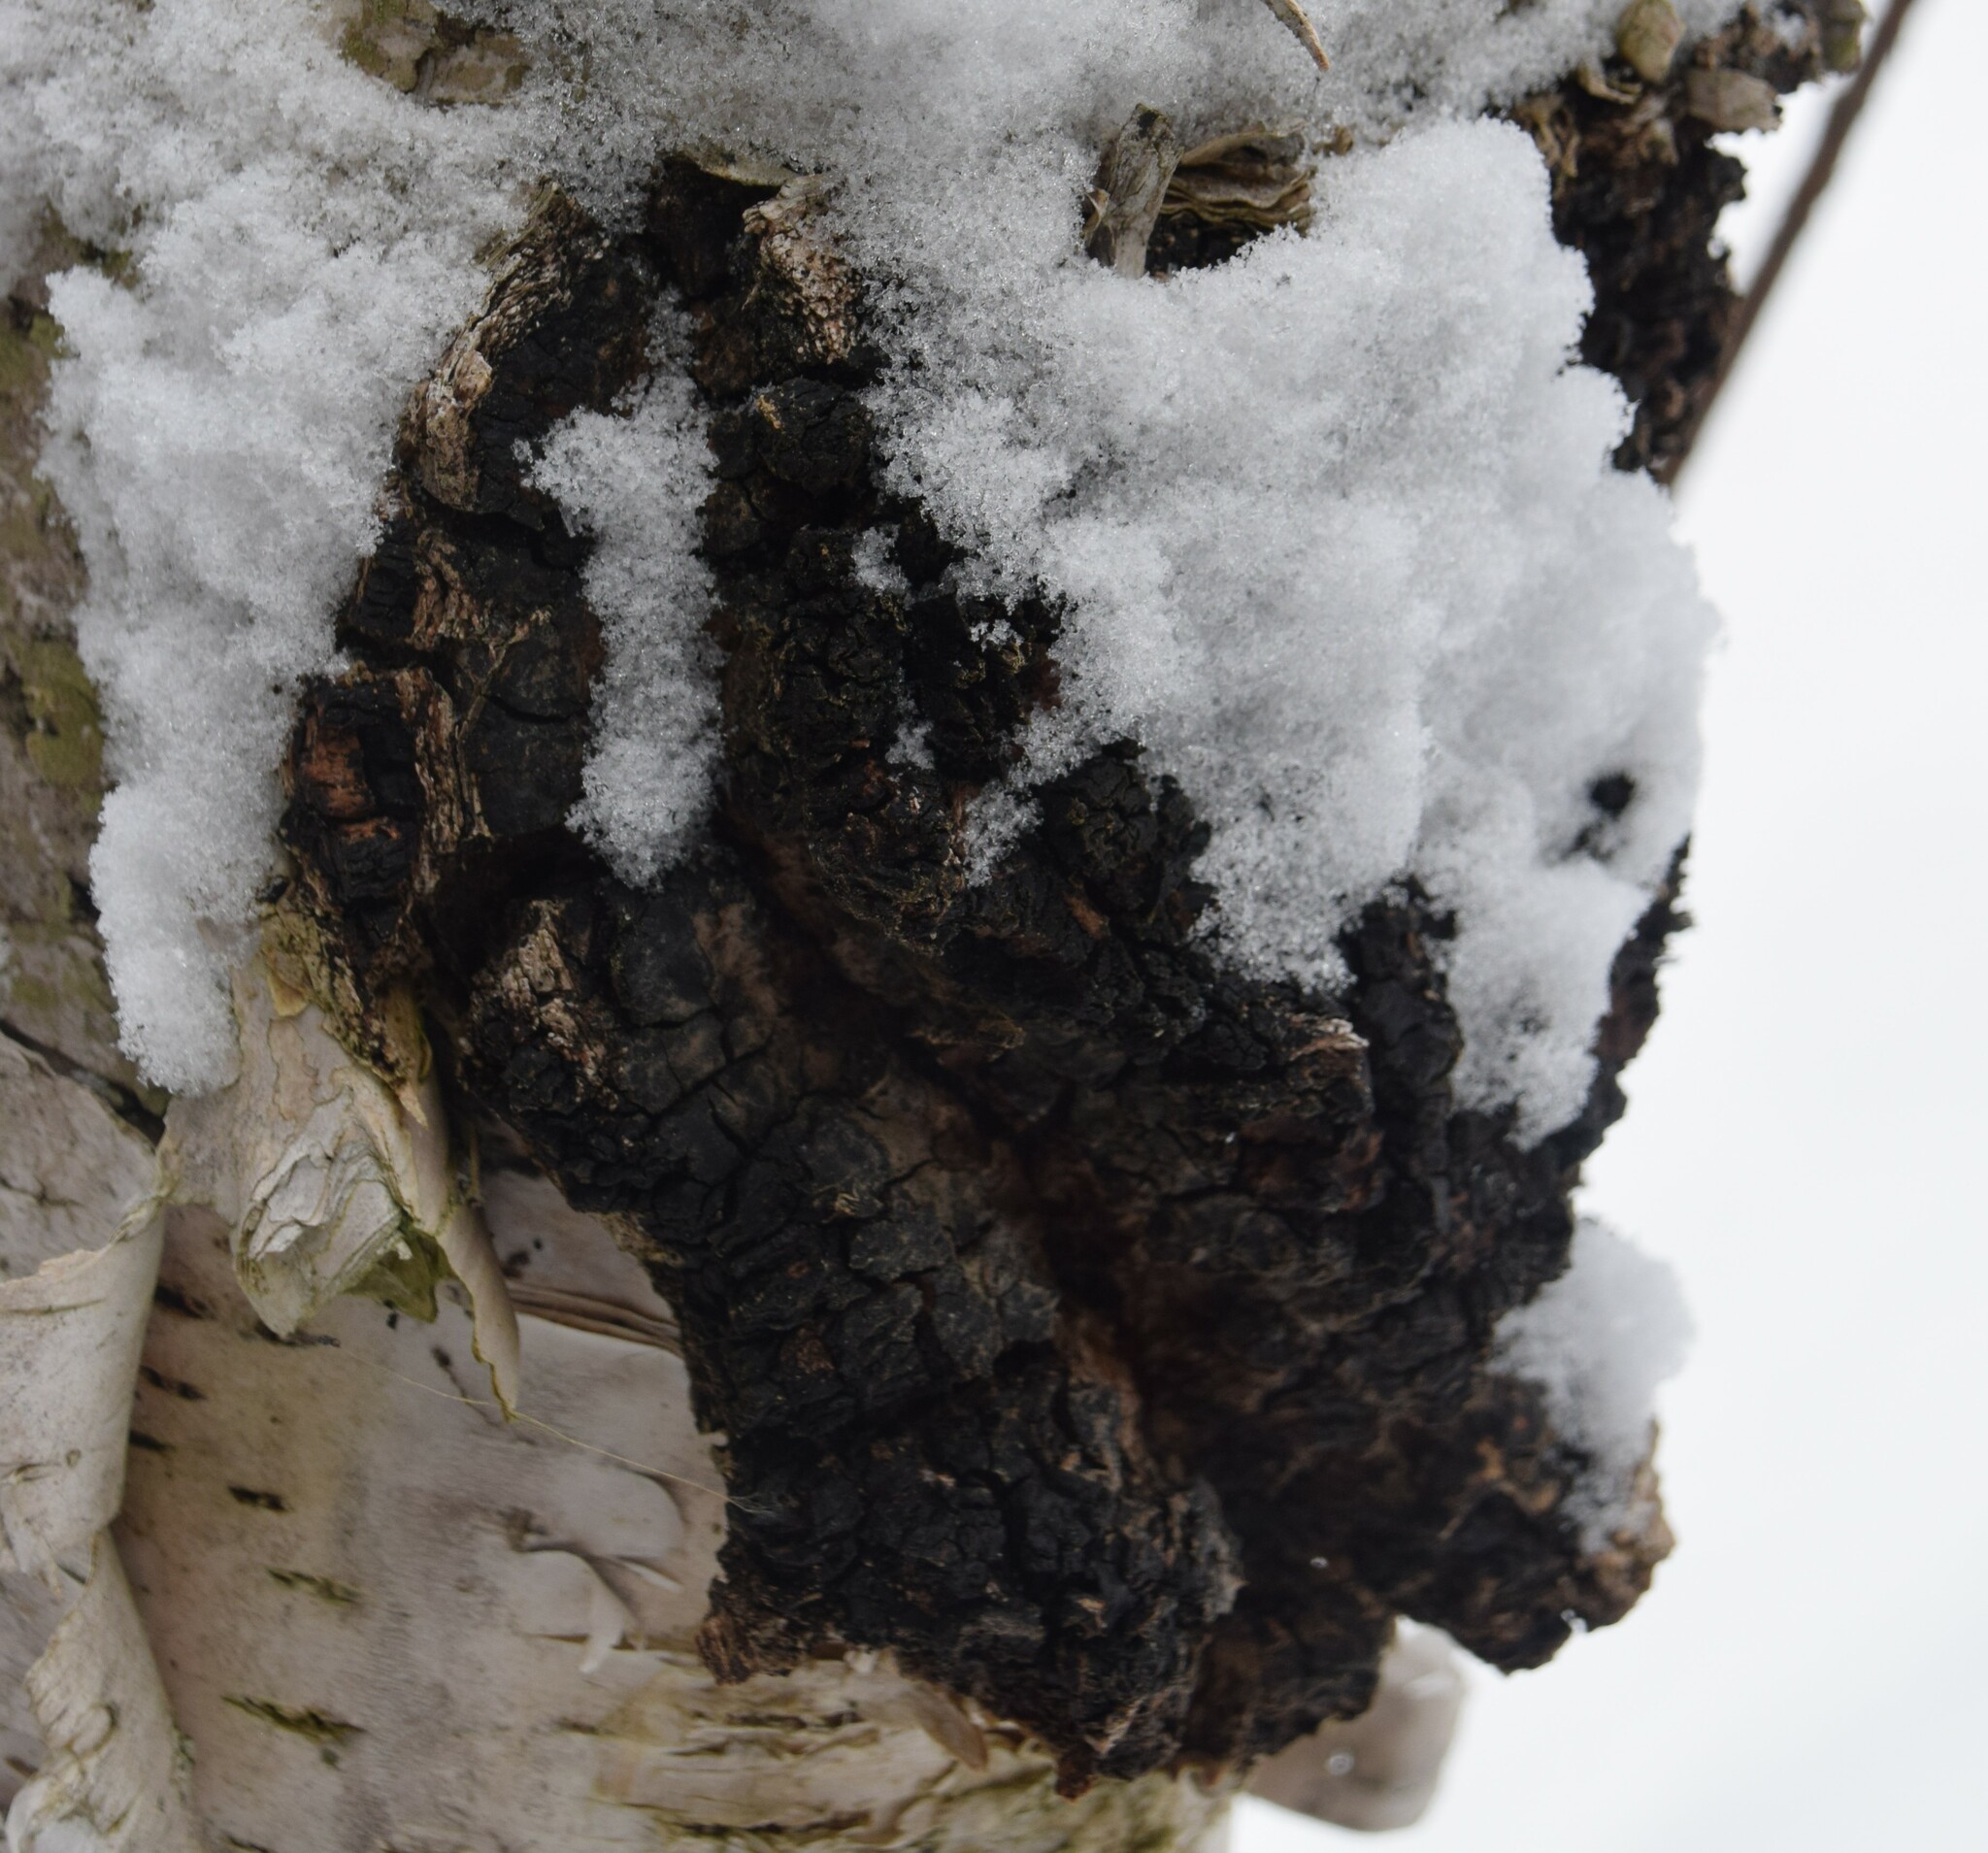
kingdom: Fungi
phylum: Basidiomycota
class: Agaricomycetes
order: Hymenochaetales
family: Hymenochaetaceae
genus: Inonotus
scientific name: Inonotus obliquus
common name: Chaga
